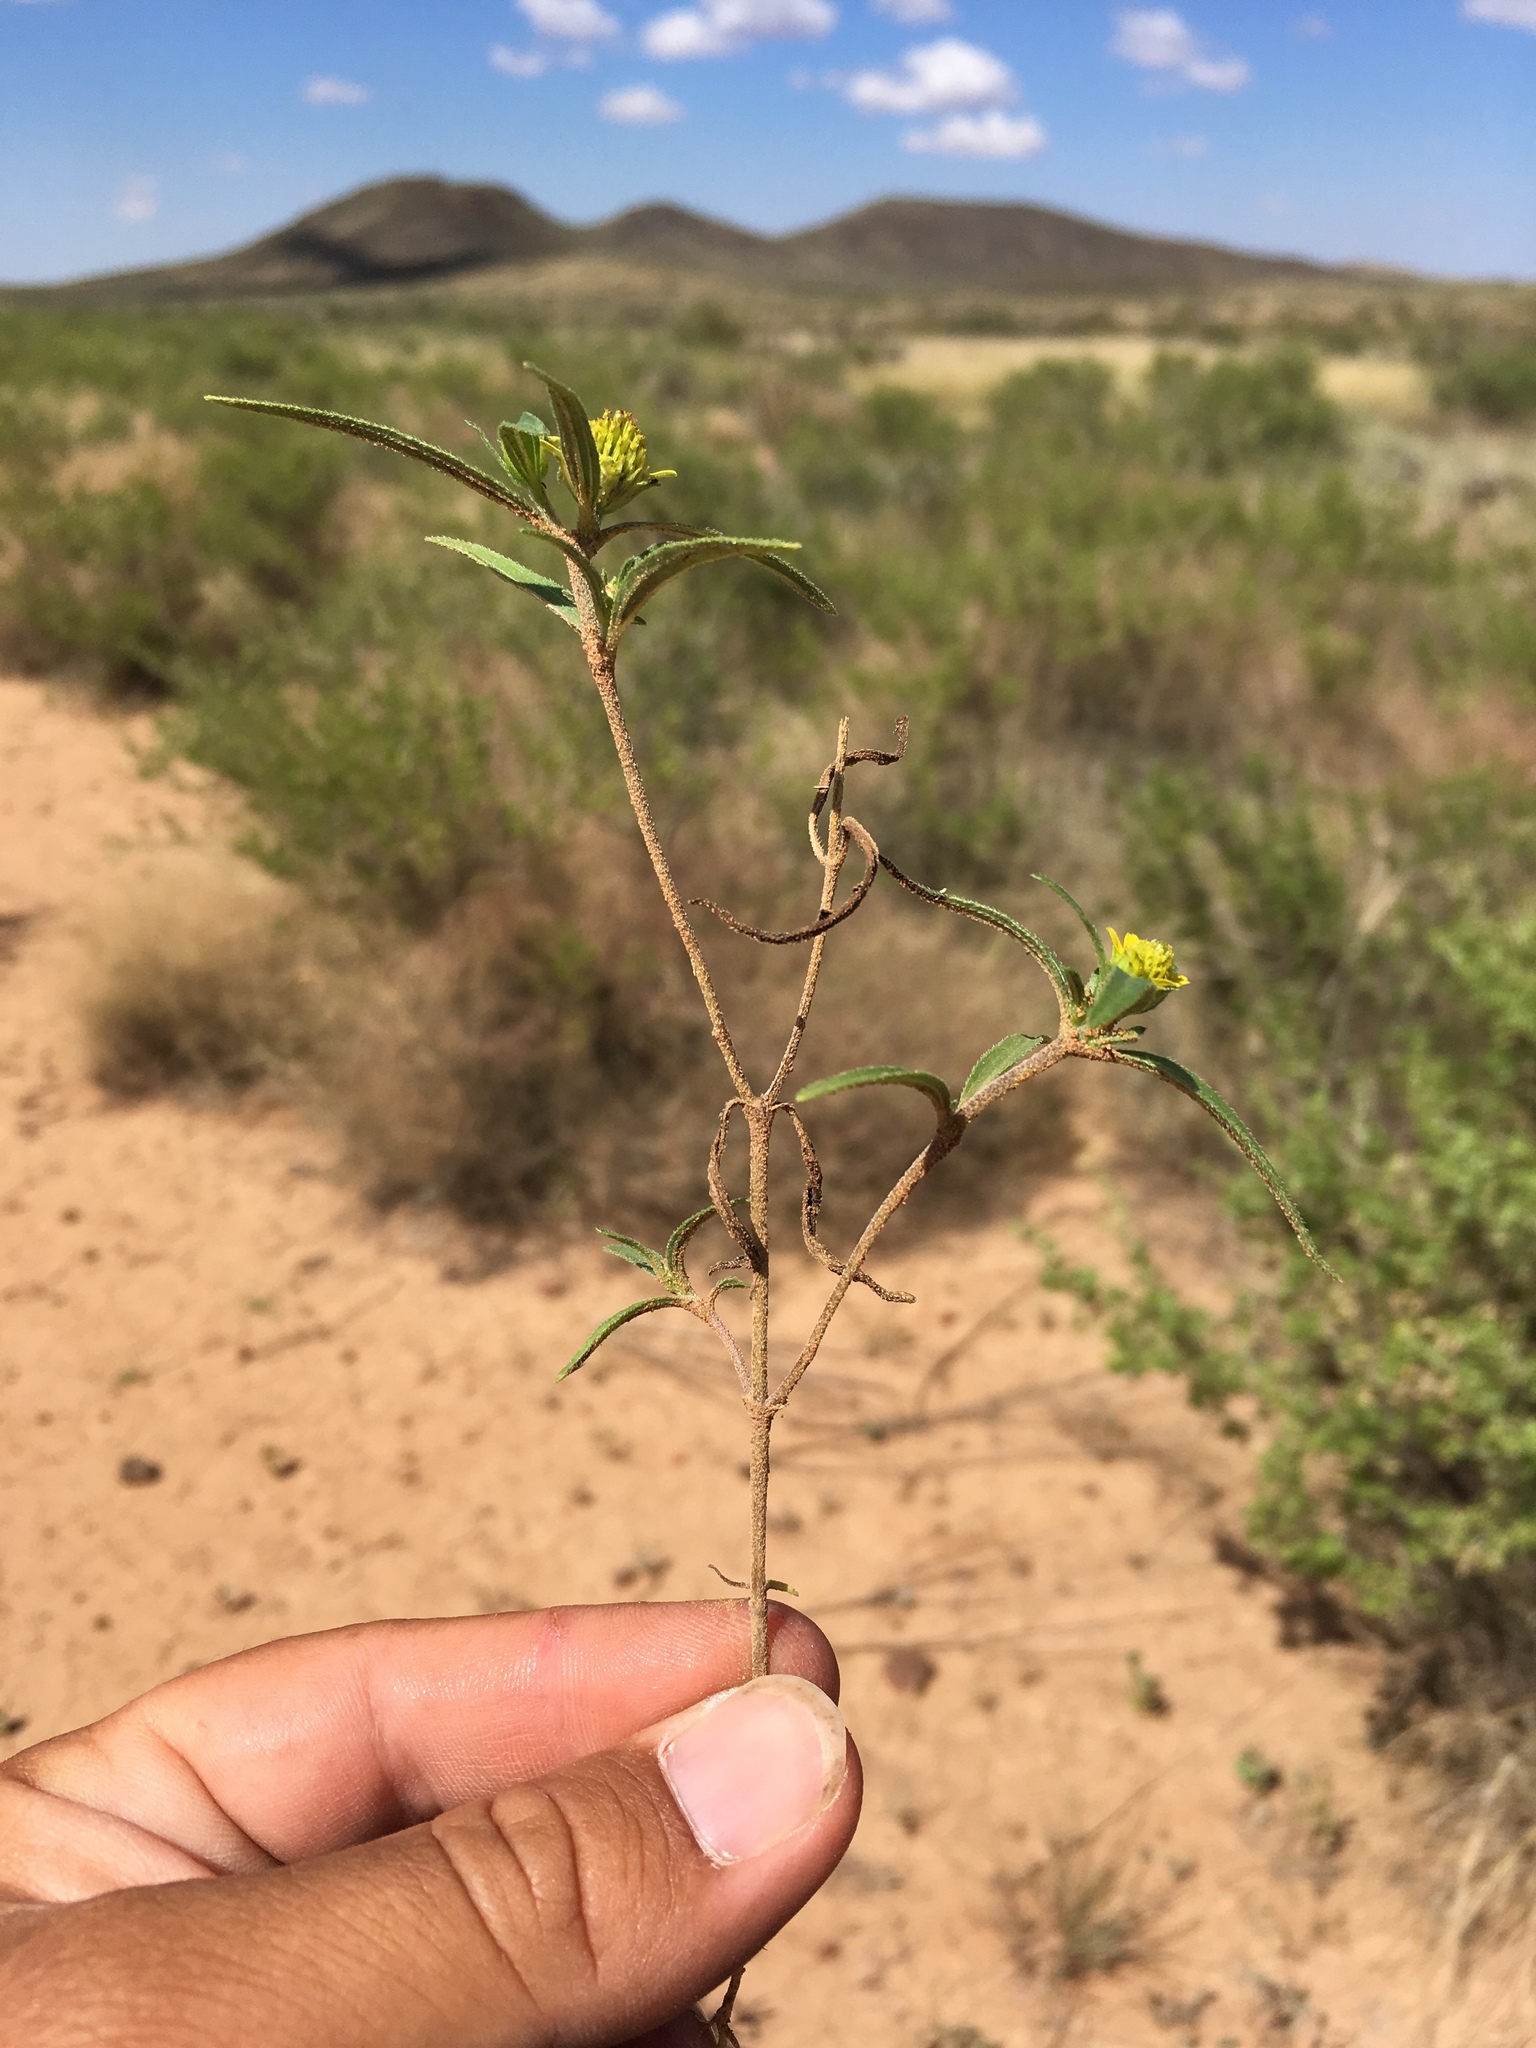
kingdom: Plantae
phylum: Tracheophyta
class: Magnoliopsida
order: Asterales
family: Asteraceae
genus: Sanvitalia
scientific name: Sanvitalia abertii
